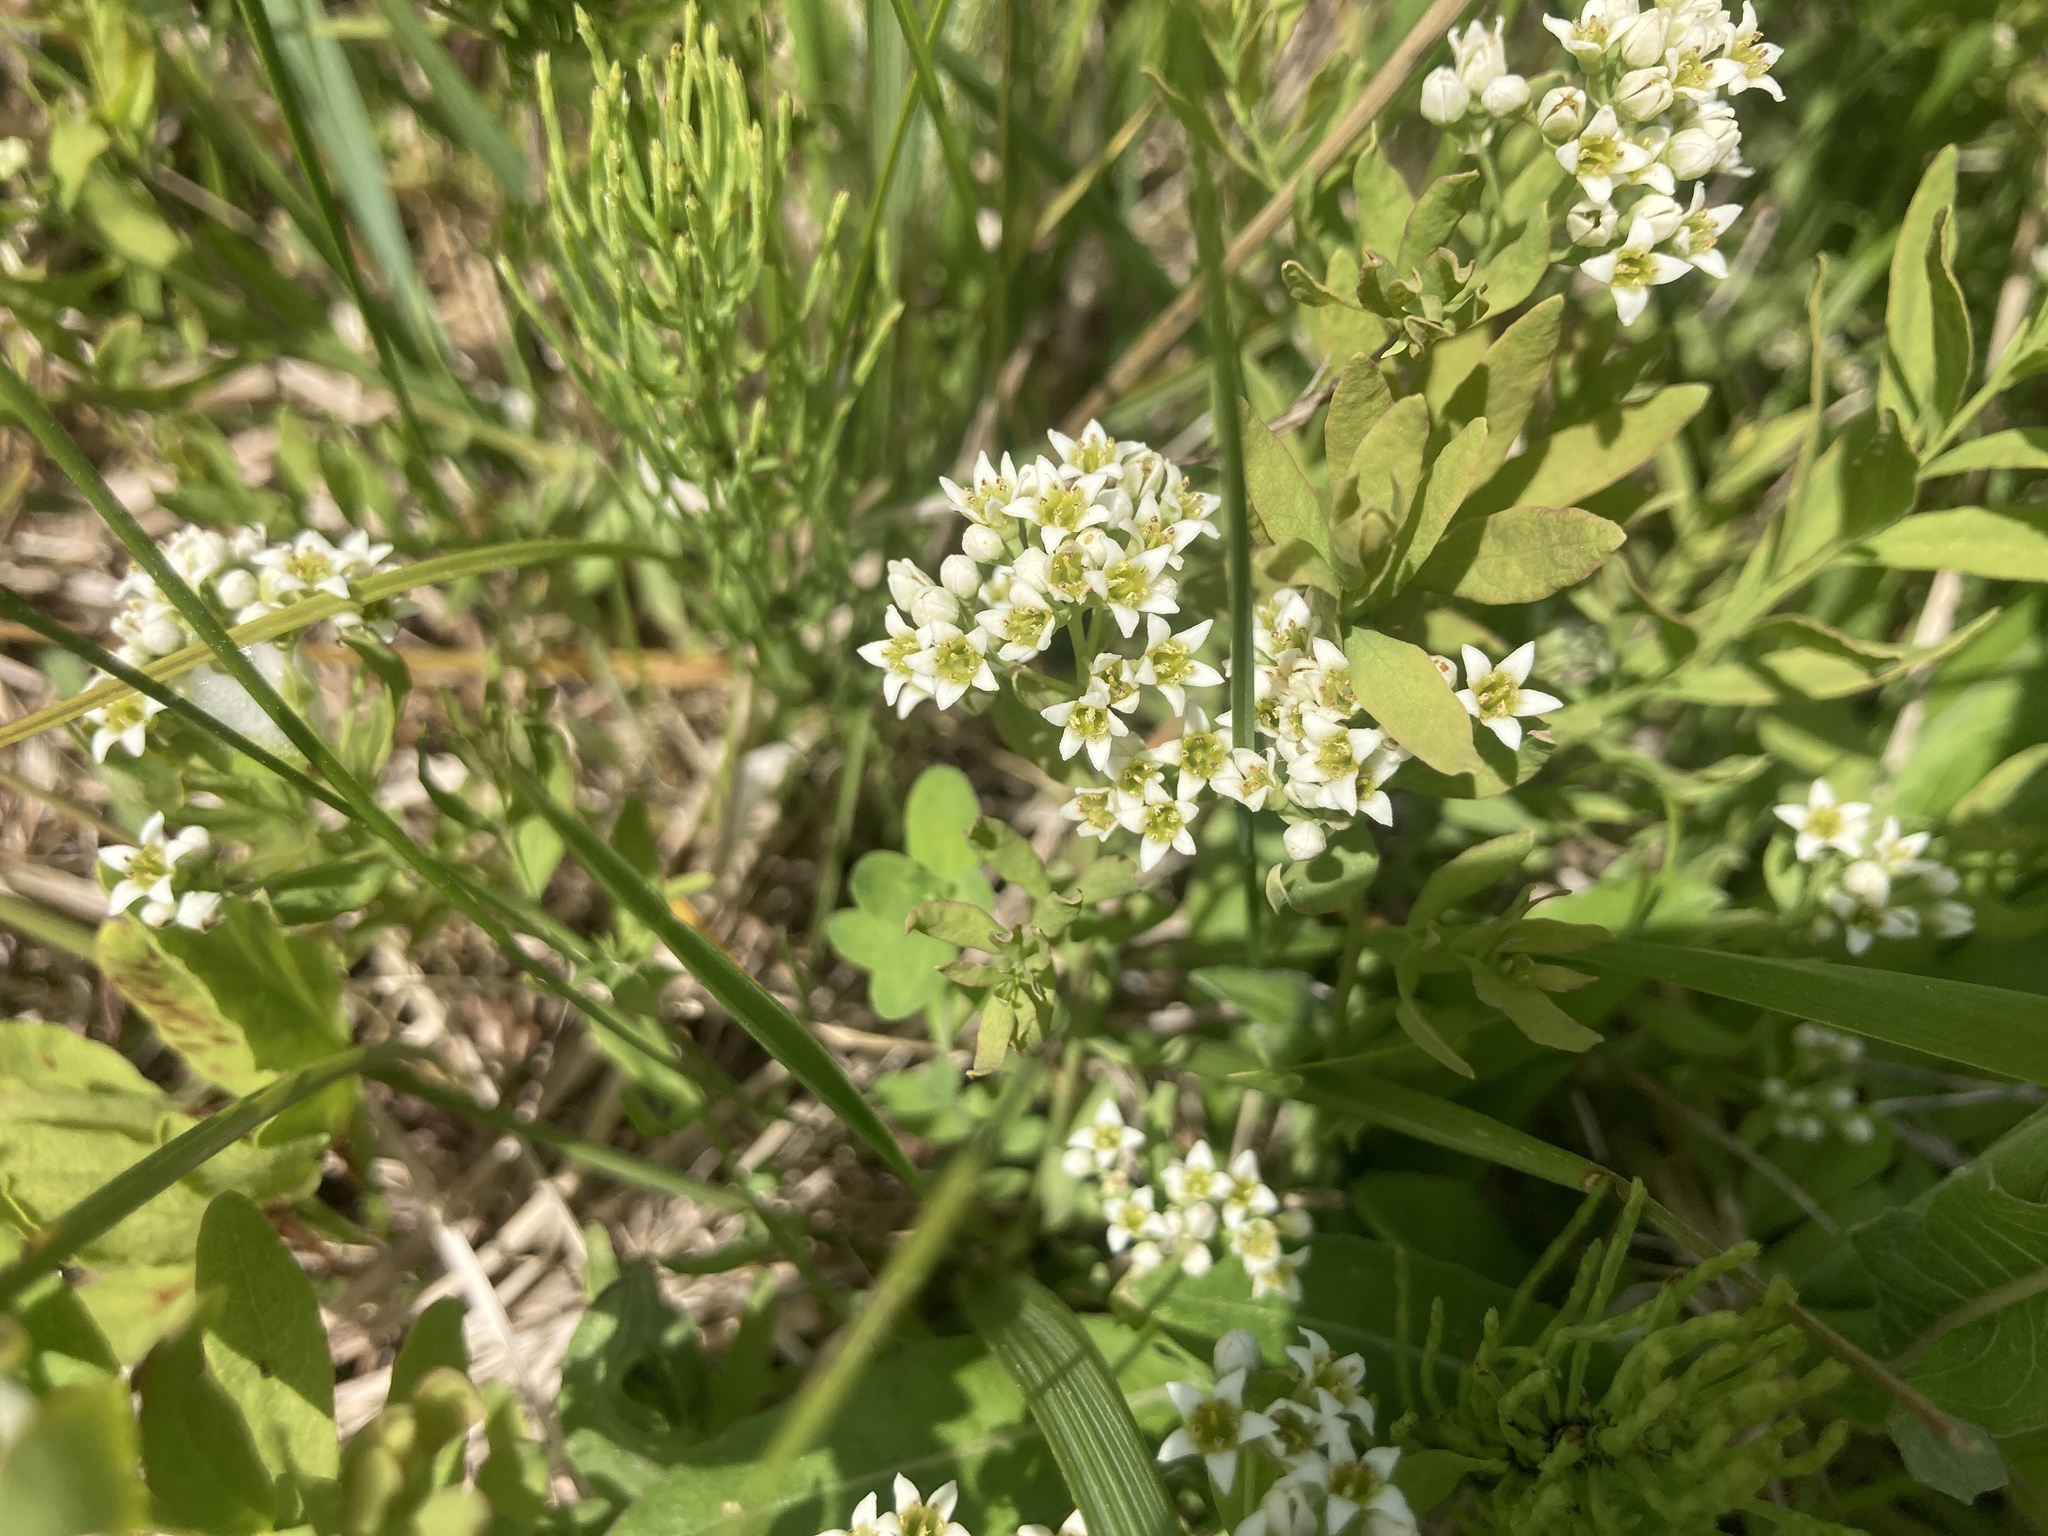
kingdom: Plantae
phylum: Tracheophyta
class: Magnoliopsida
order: Santalales
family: Comandraceae
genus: Comandra
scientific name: Comandra umbellata
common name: Bastard toadflax
